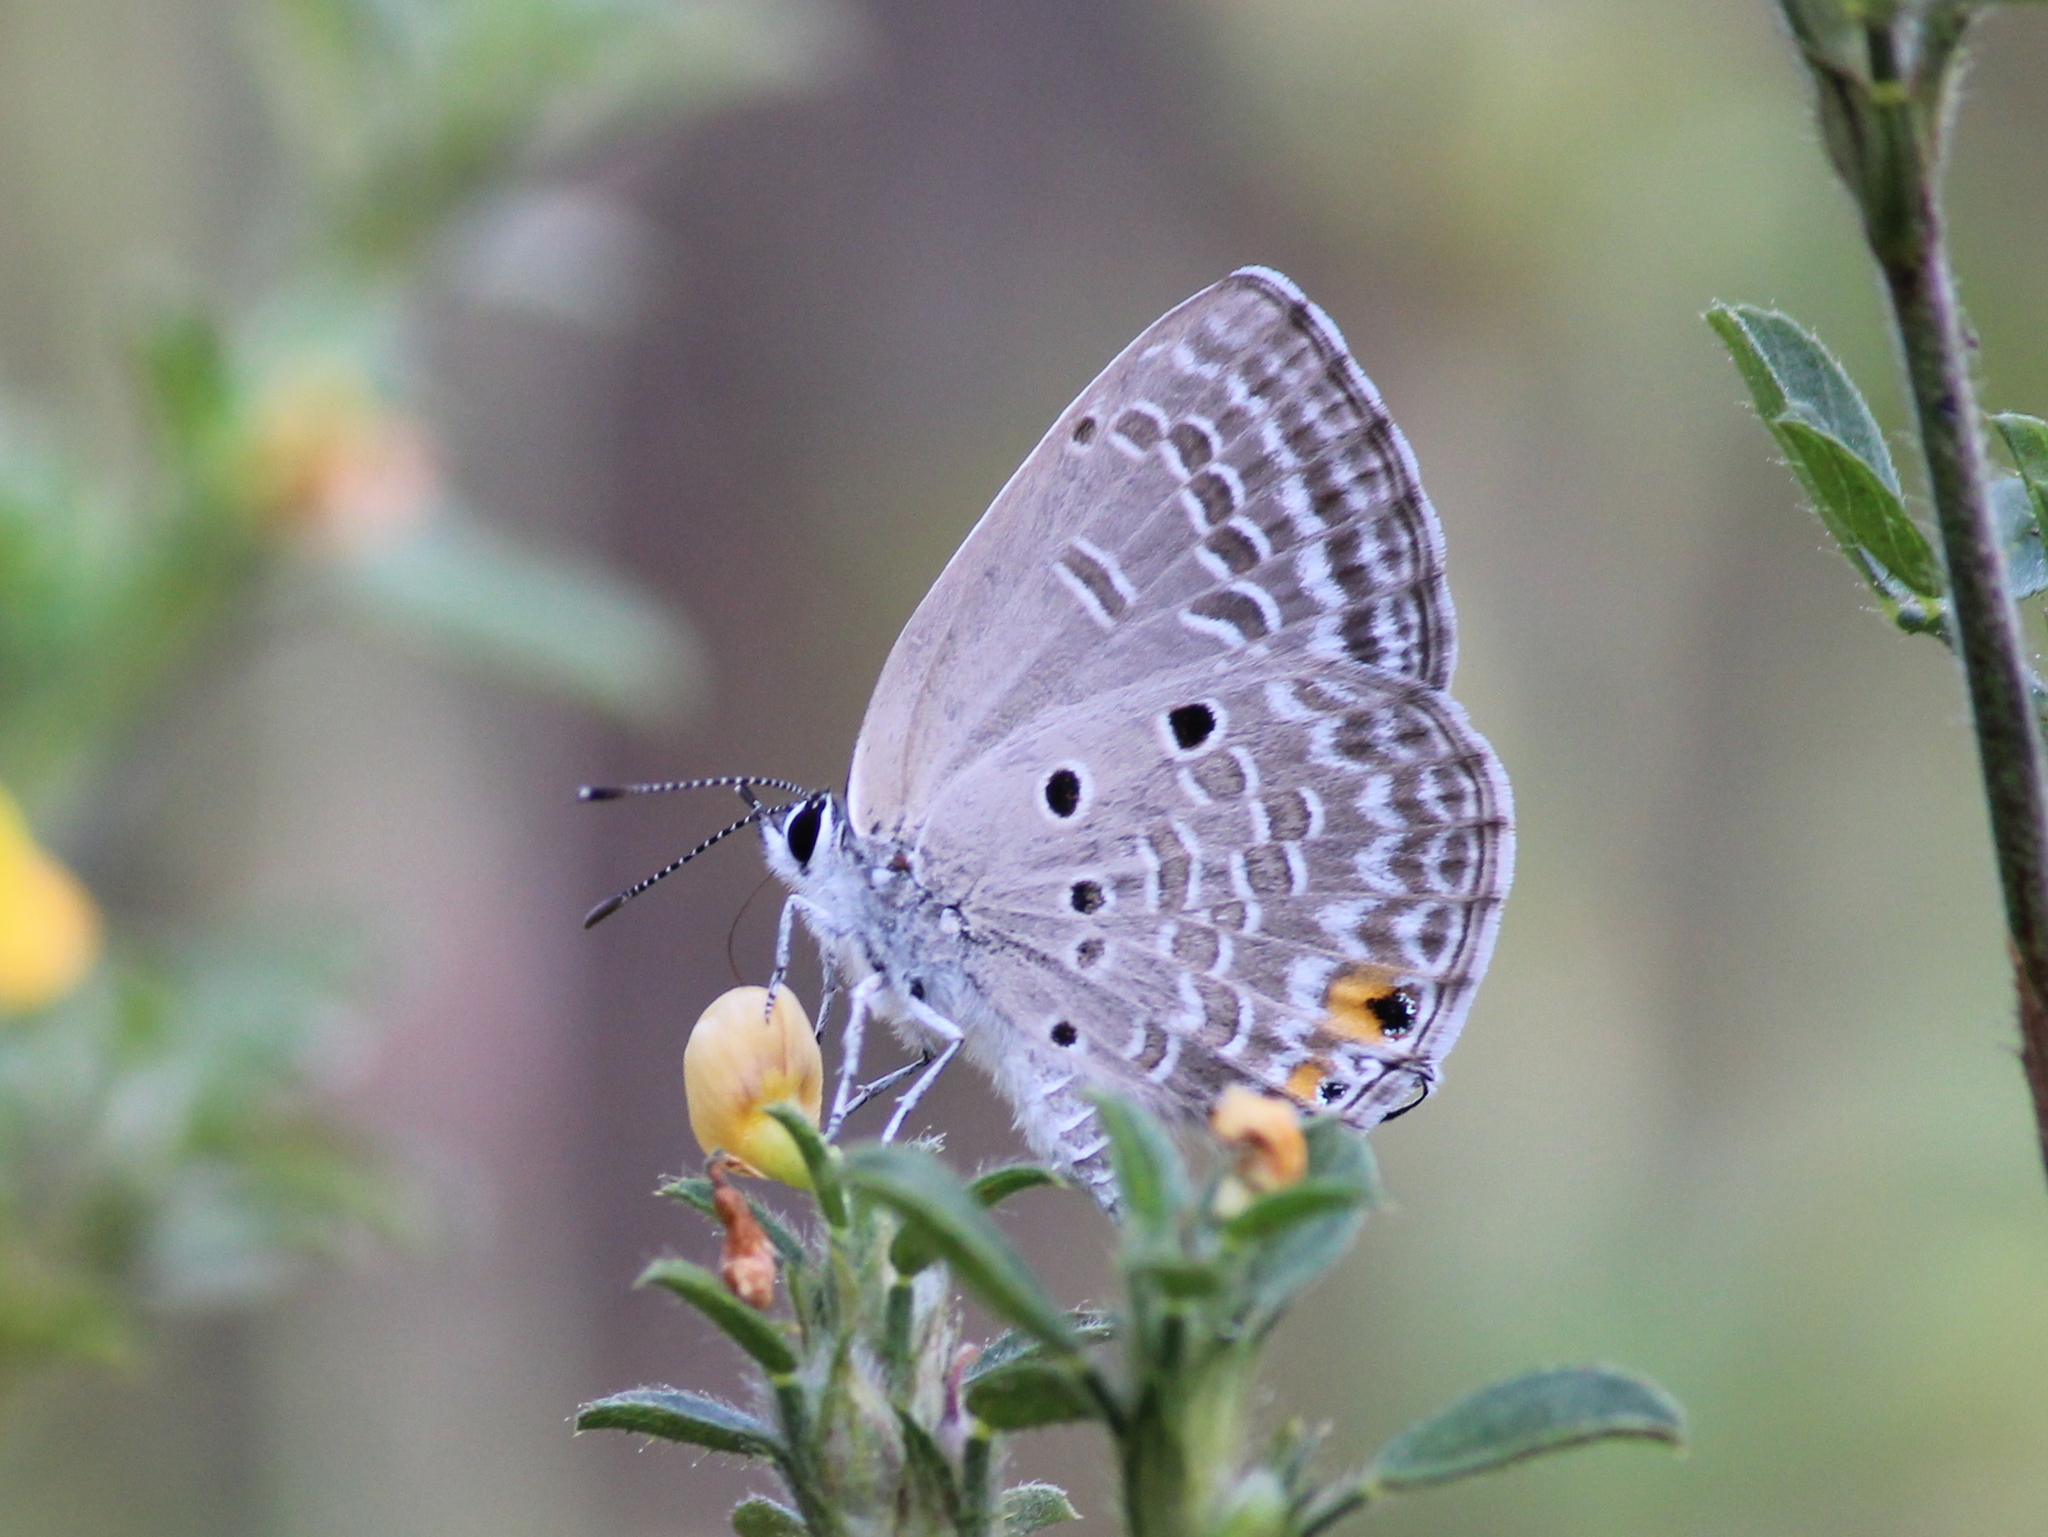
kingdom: Animalia
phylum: Arthropoda
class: Insecta
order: Lepidoptera
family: Lycaenidae
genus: Luthrodes
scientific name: Luthrodes pandava
